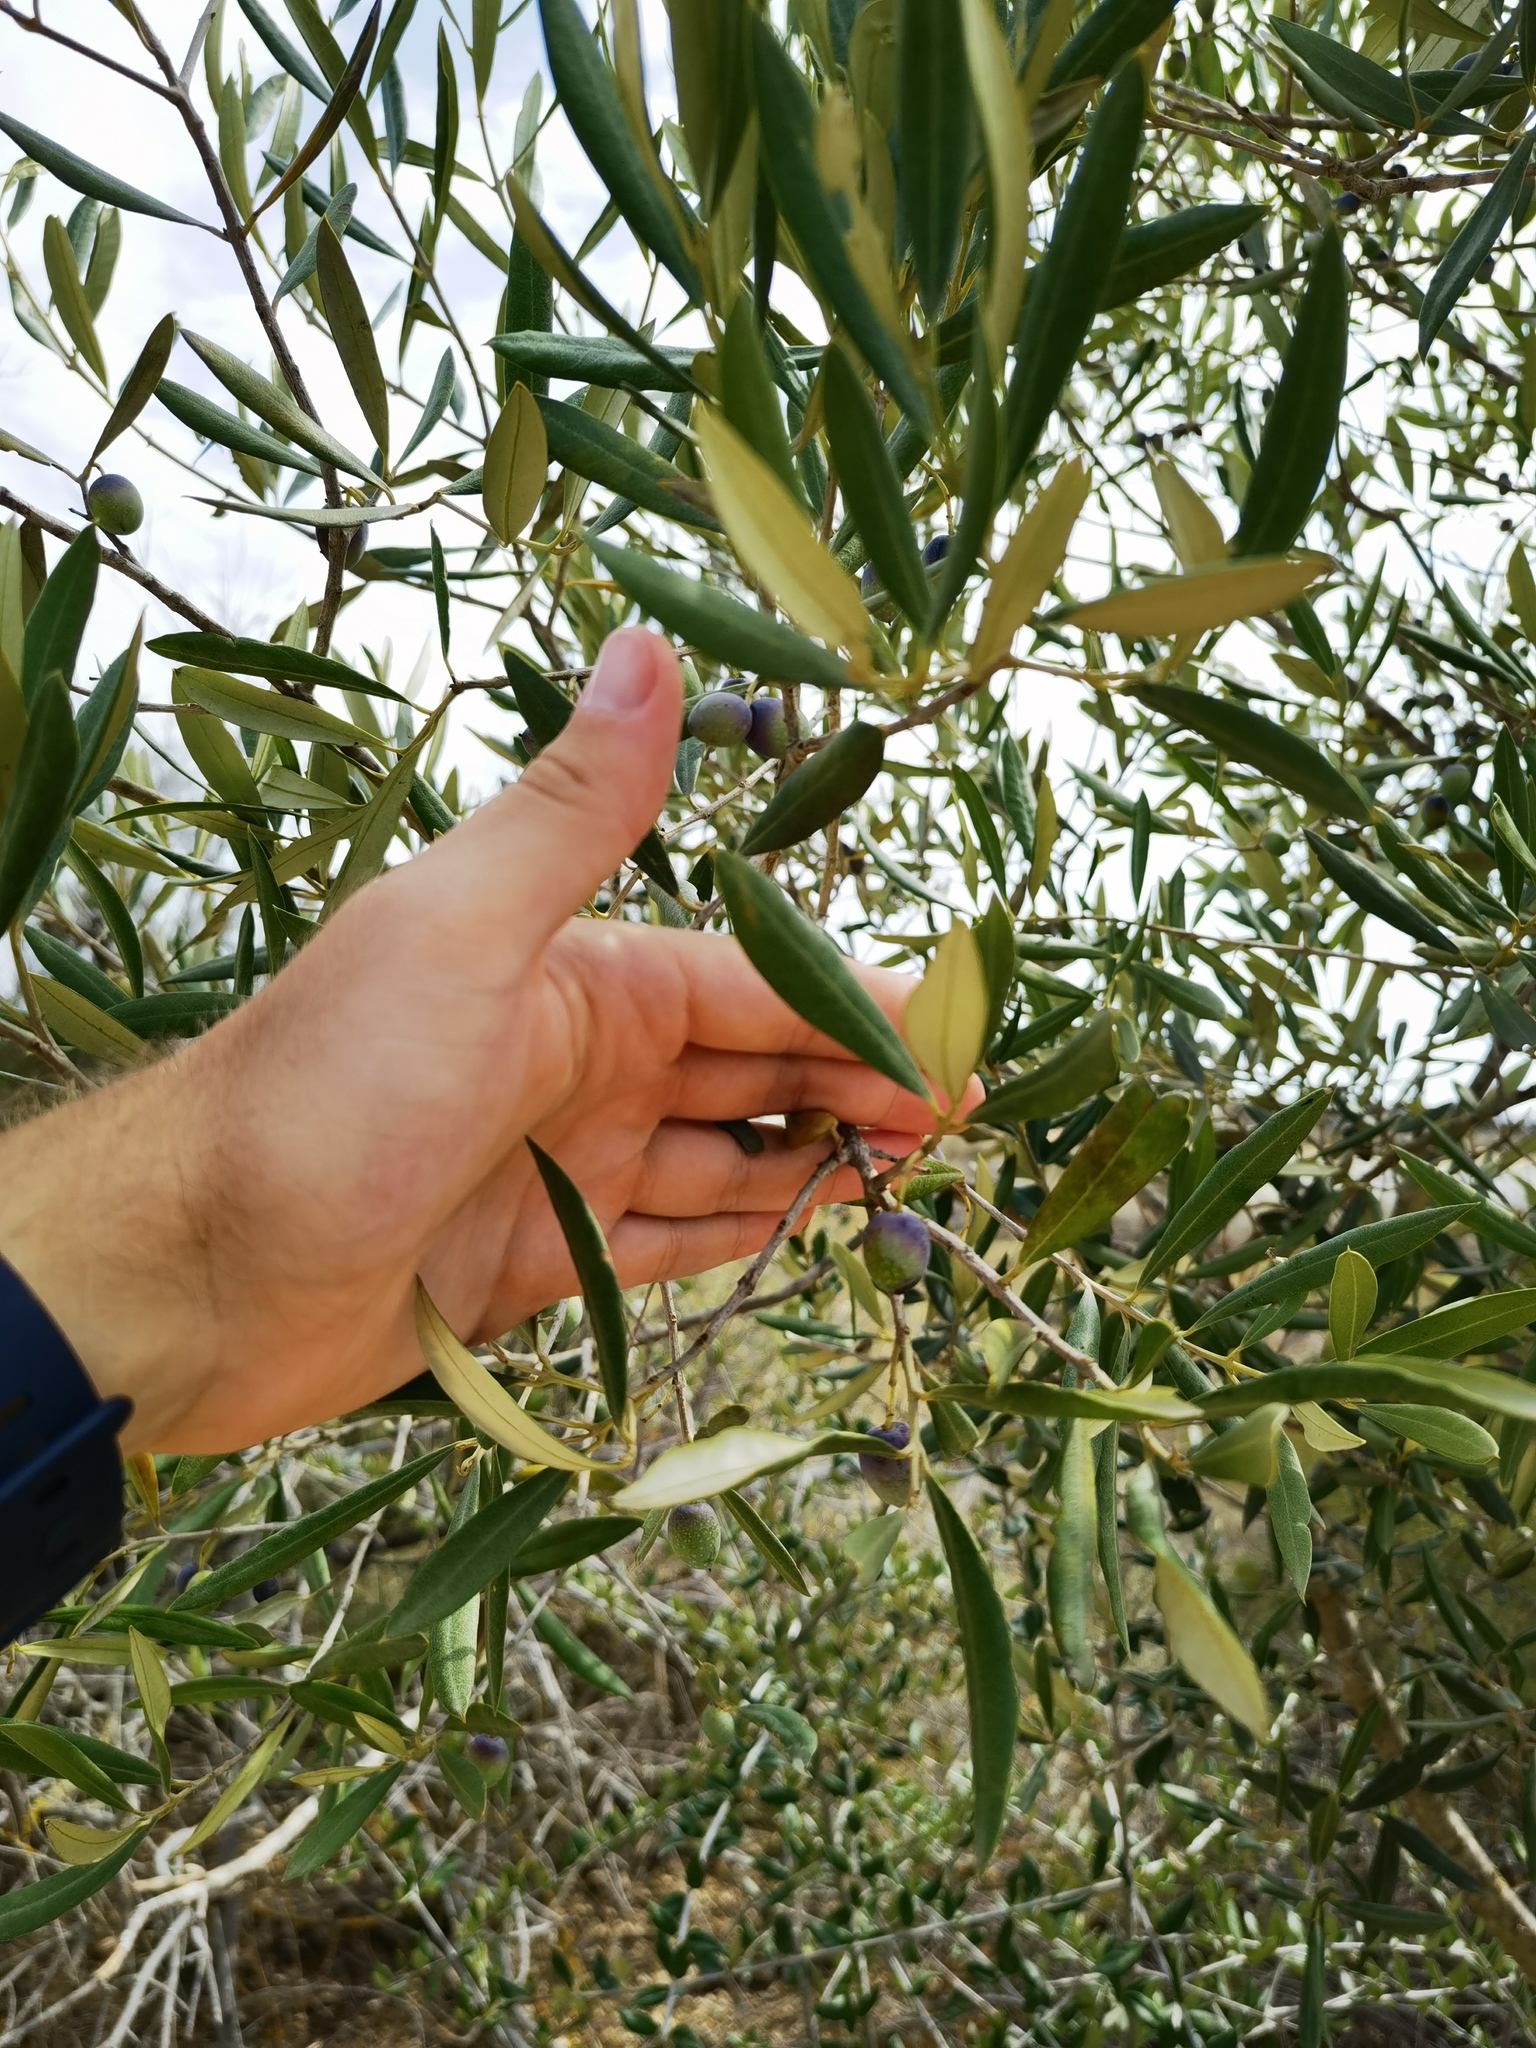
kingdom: Plantae
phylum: Tracheophyta
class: Magnoliopsida
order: Lamiales
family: Oleaceae
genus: Olea
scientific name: Olea europaea
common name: Olive
